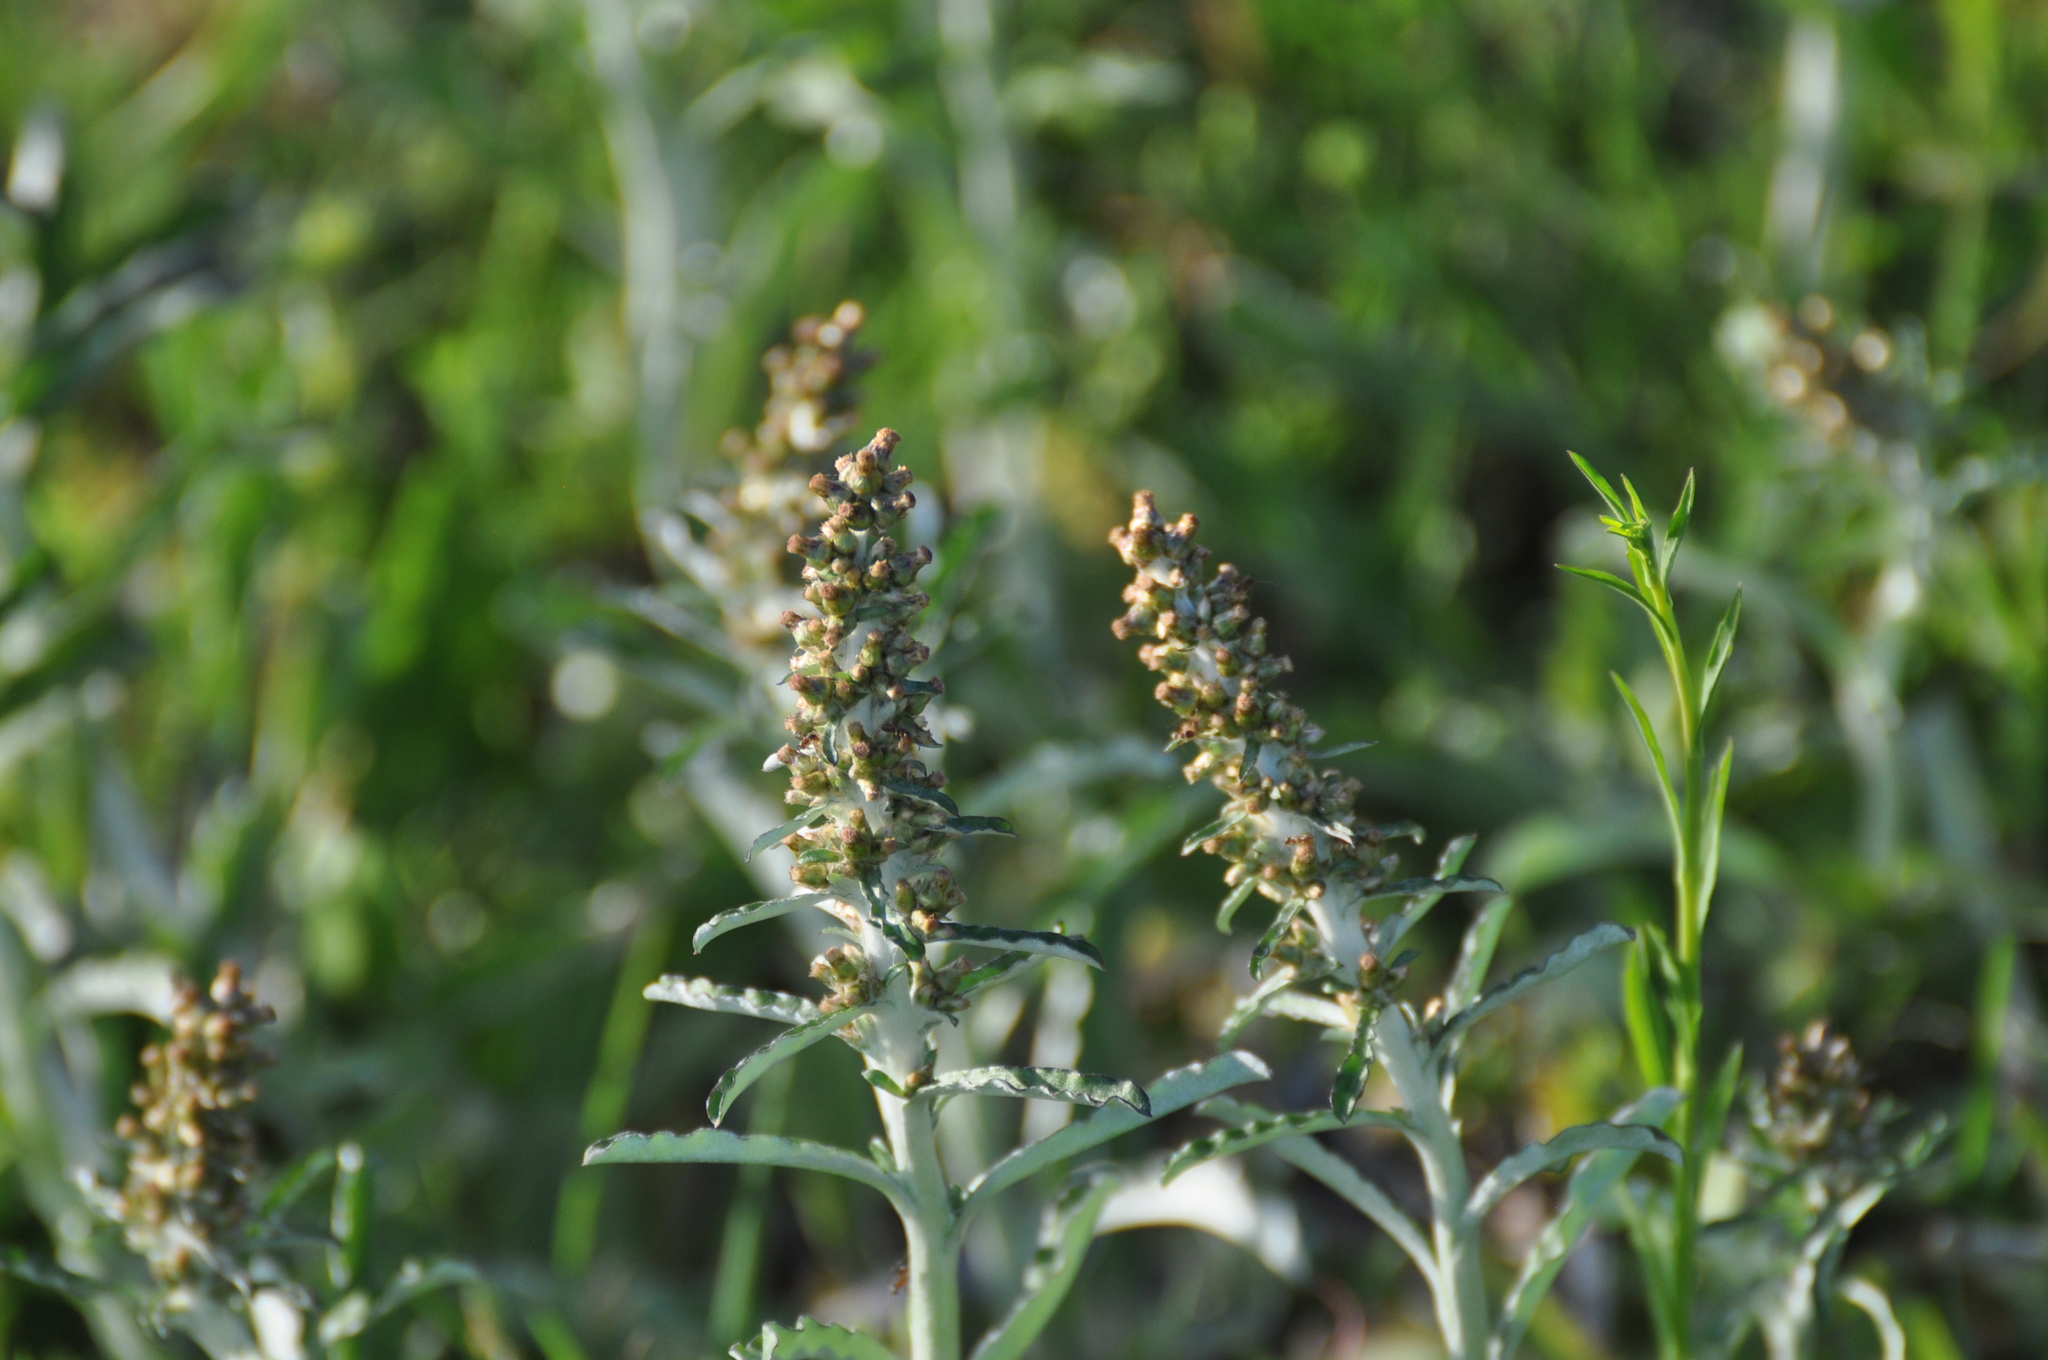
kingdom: Plantae
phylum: Tracheophyta
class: Magnoliopsida
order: Asterales
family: Asteraceae
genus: Gamochaeta
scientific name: Gamochaeta purpurea
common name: Purple cudweed
